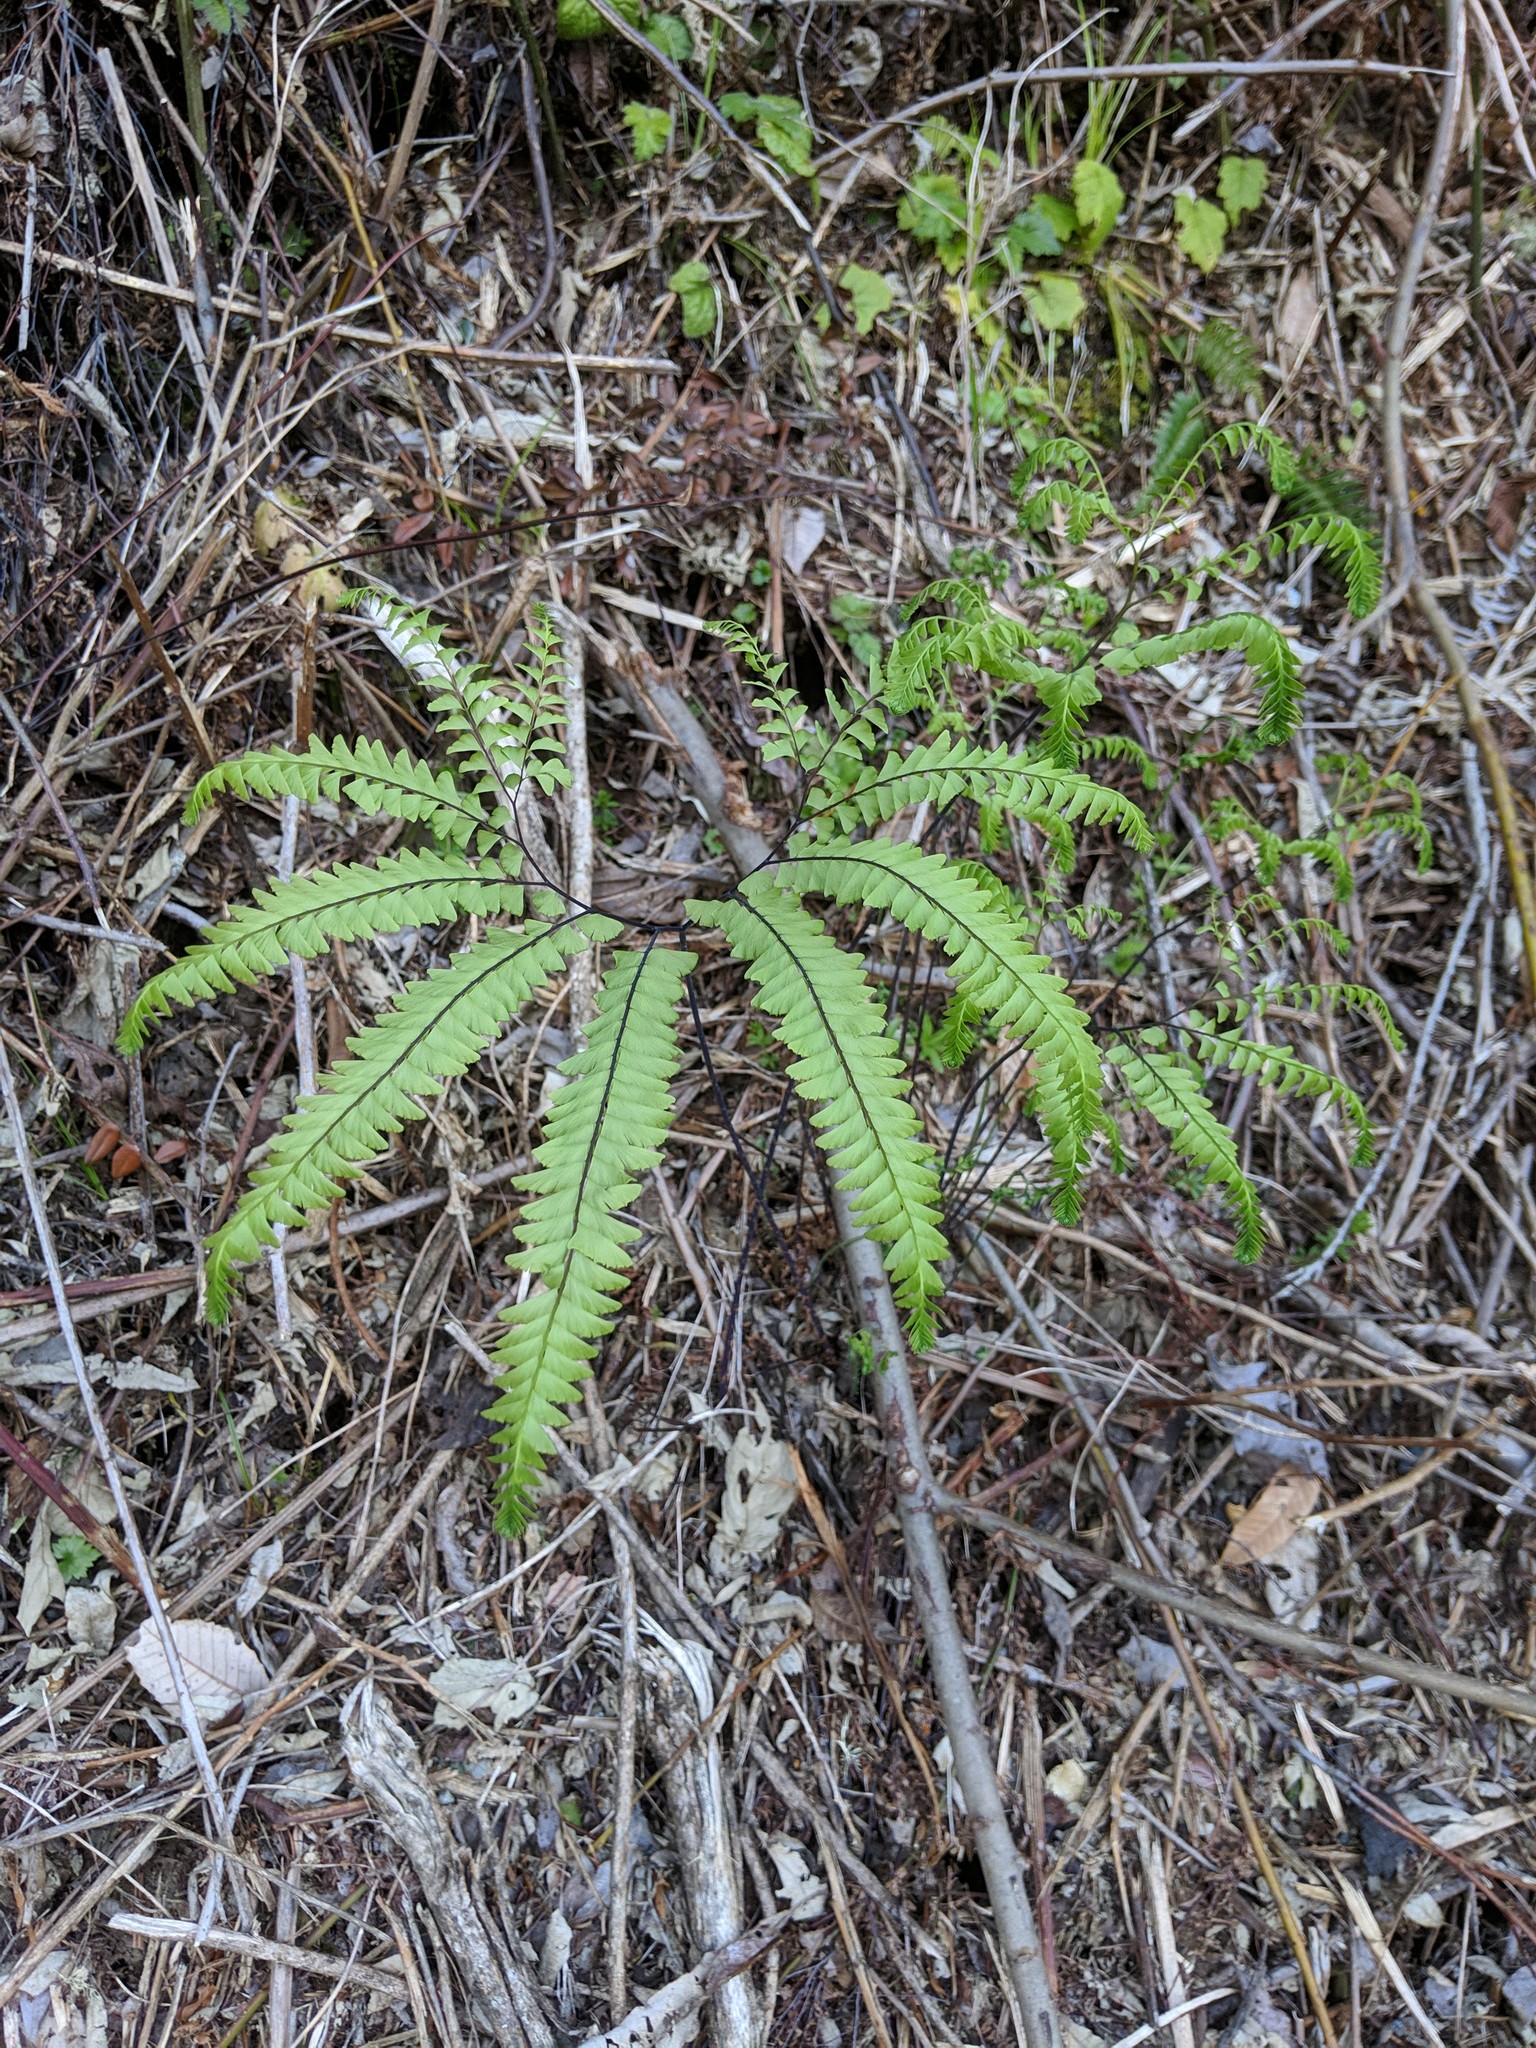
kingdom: Plantae
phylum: Tracheophyta
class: Polypodiopsida
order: Polypodiales
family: Pteridaceae
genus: Adiantum
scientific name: Adiantum aleuticum
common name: Aleutian maidenhair fern
